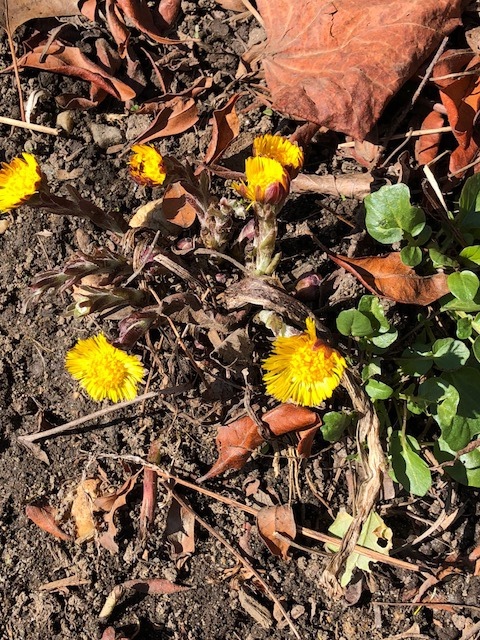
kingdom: Plantae
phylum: Tracheophyta
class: Magnoliopsida
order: Asterales
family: Asteraceae
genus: Tussilago
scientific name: Tussilago farfara
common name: Coltsfoot
